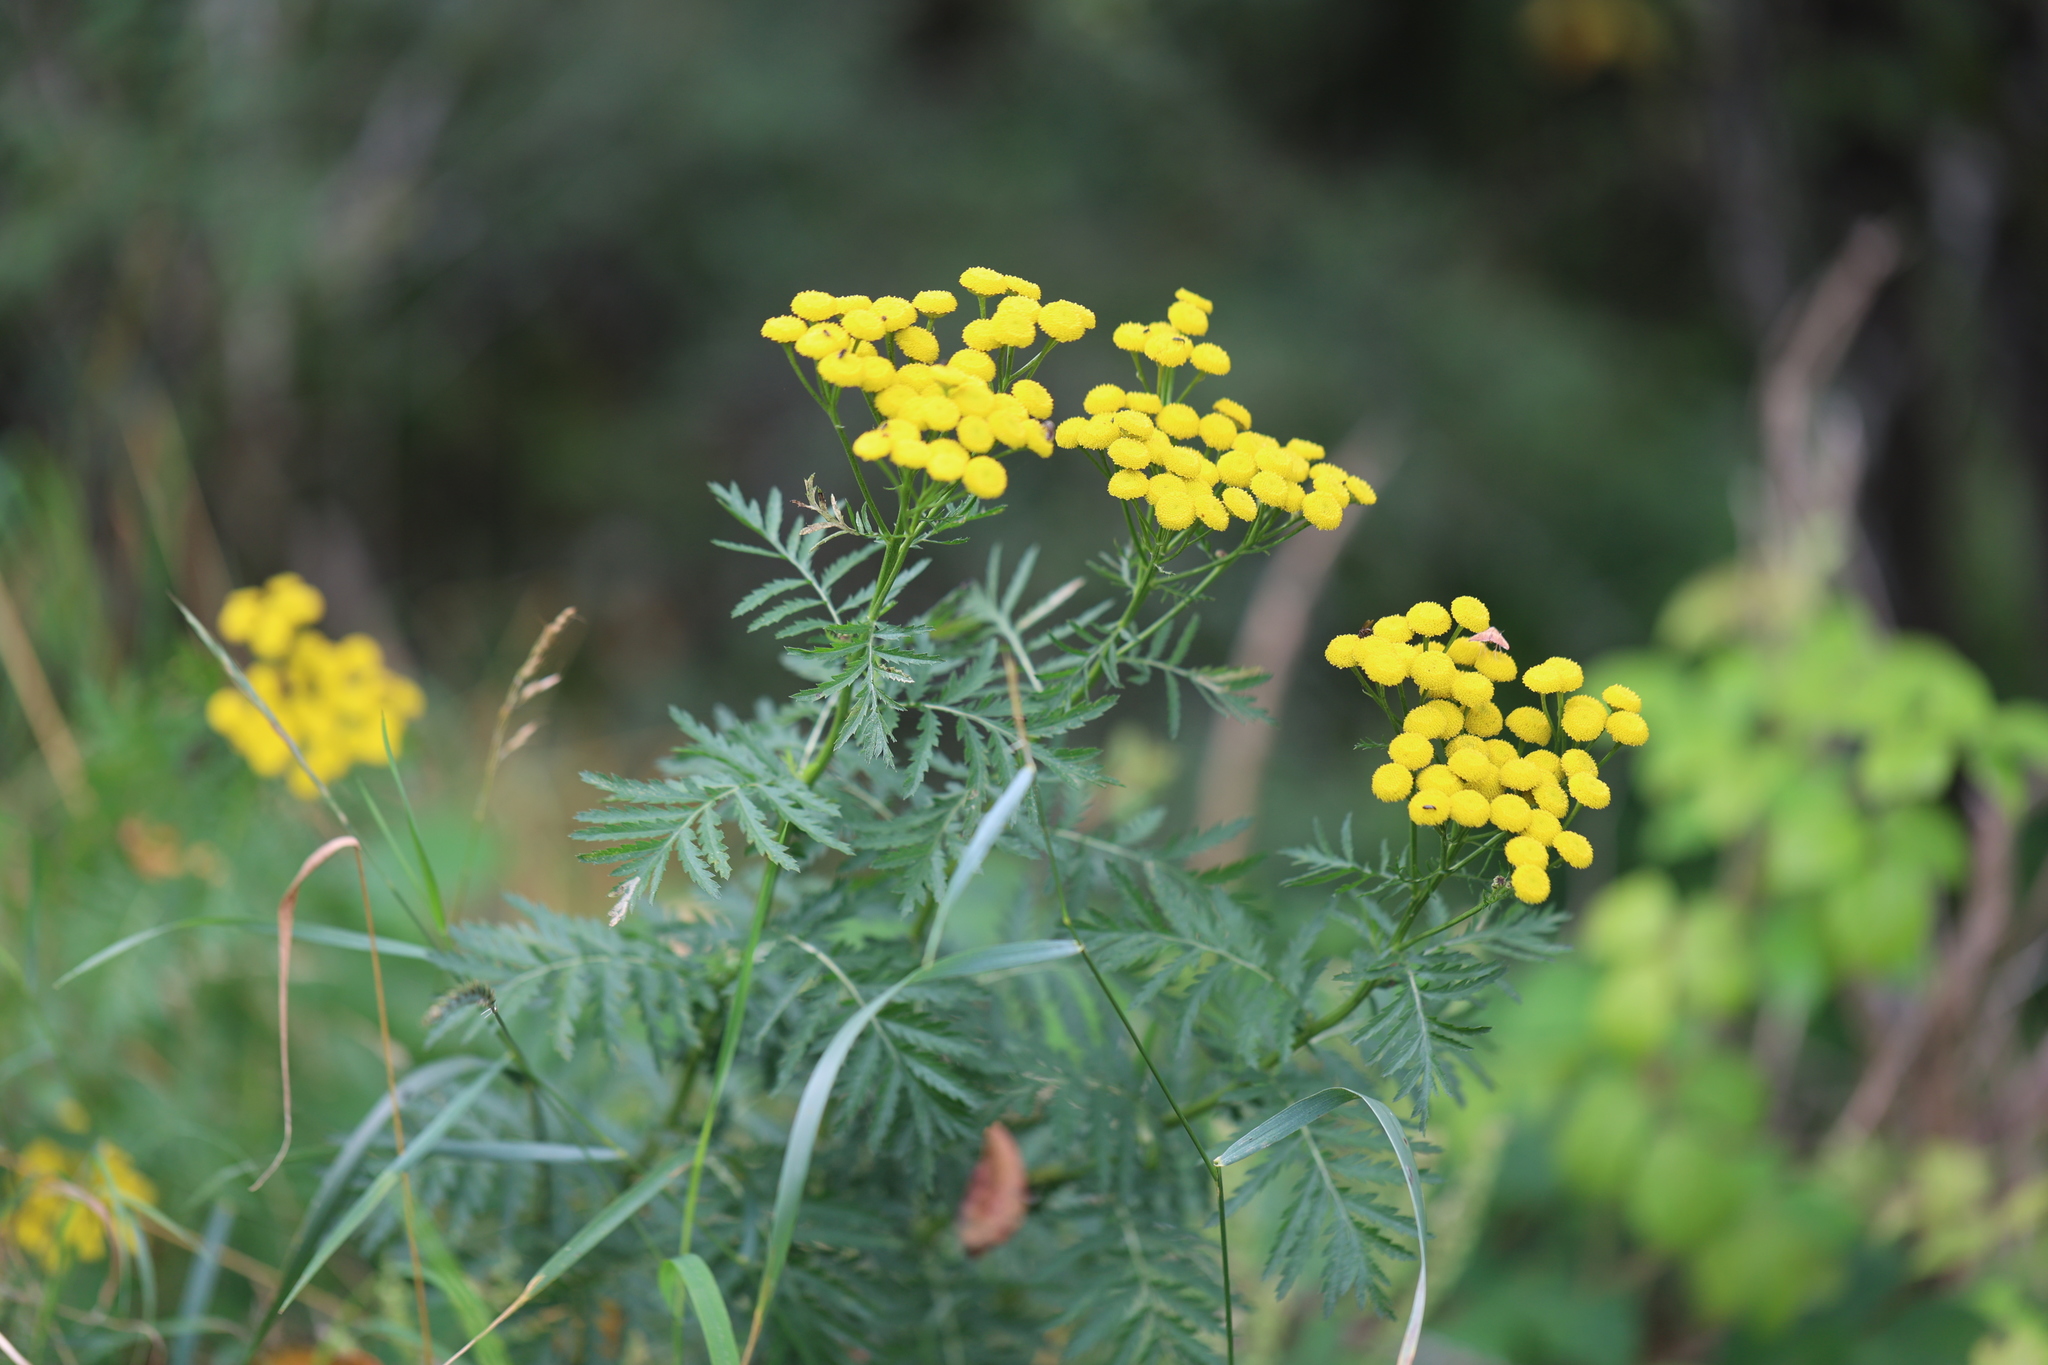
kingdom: Plantae
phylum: Tracheophyta
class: Magnoliopsida
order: Asterales
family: Asteraceae
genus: Tanacetum
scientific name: Tanacetum vulgare
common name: Common tansy
